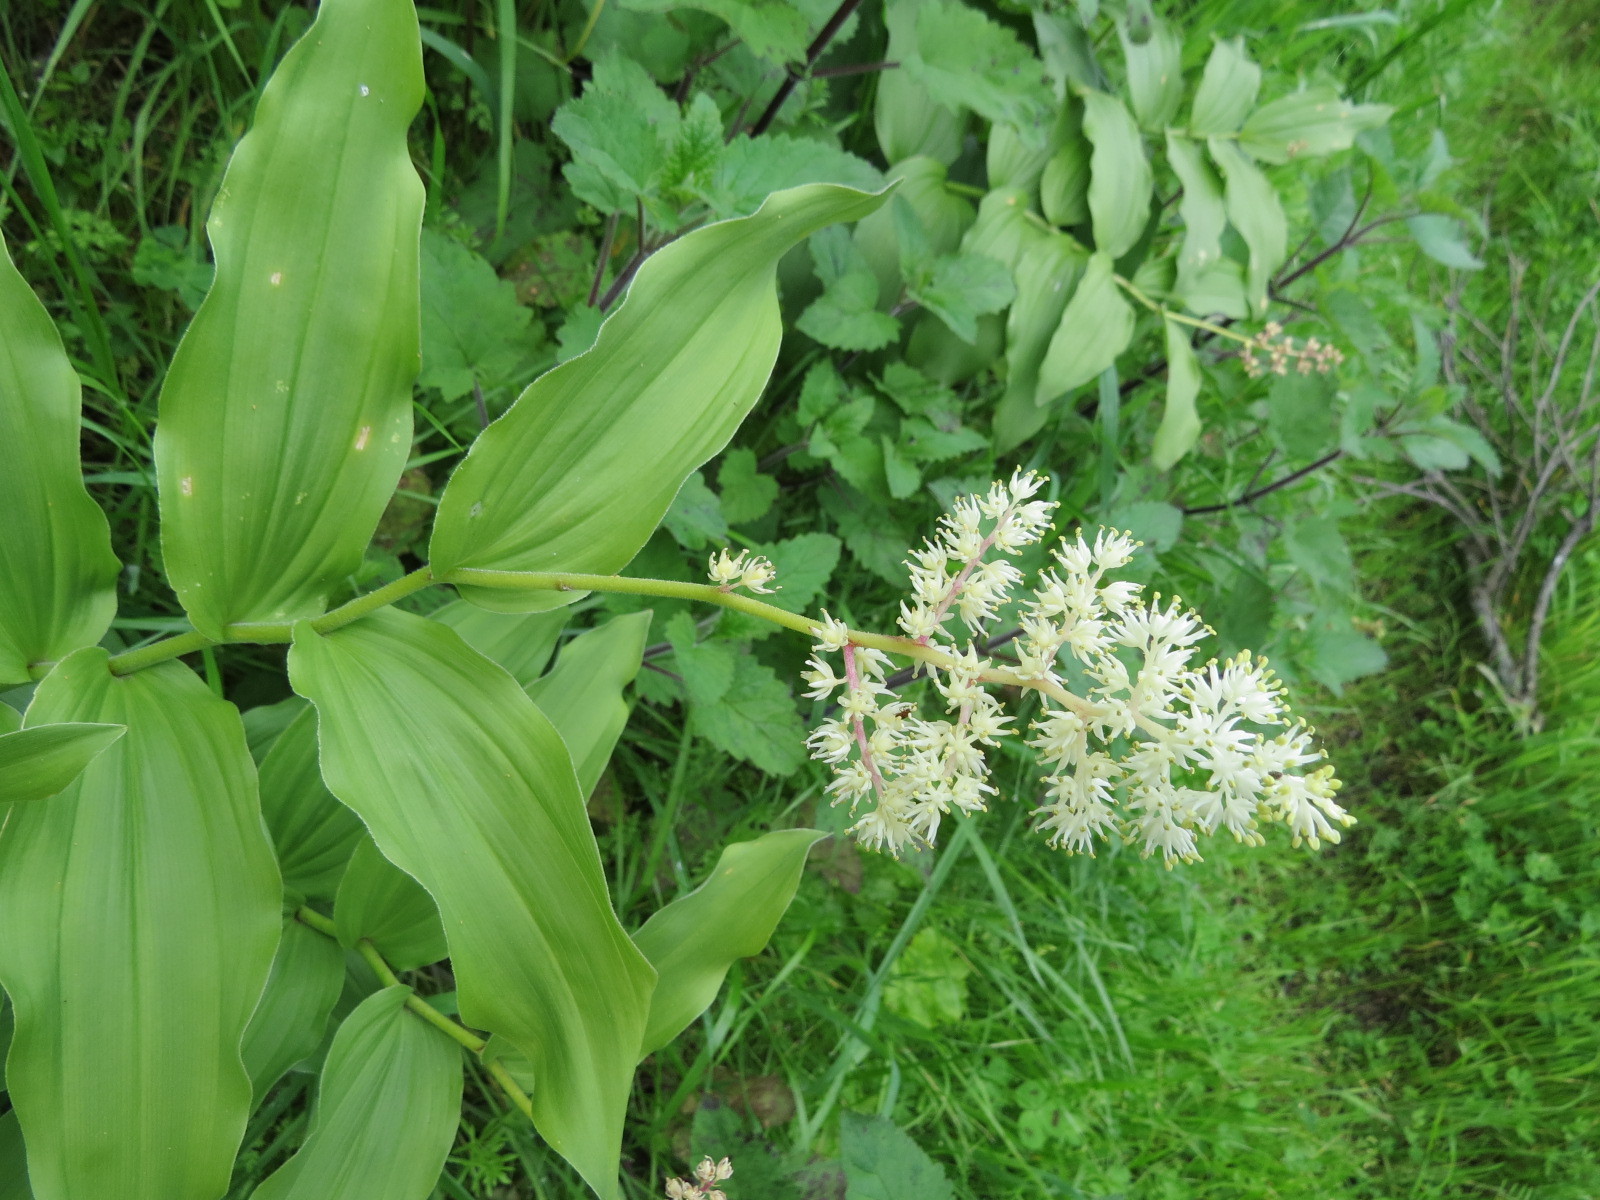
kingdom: Plantae
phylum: Tracheophyta
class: Liliopsida
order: Asparagales
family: Asparagaceae
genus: Maianthemum
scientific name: Maianthemum racemosum
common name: False spikenard
